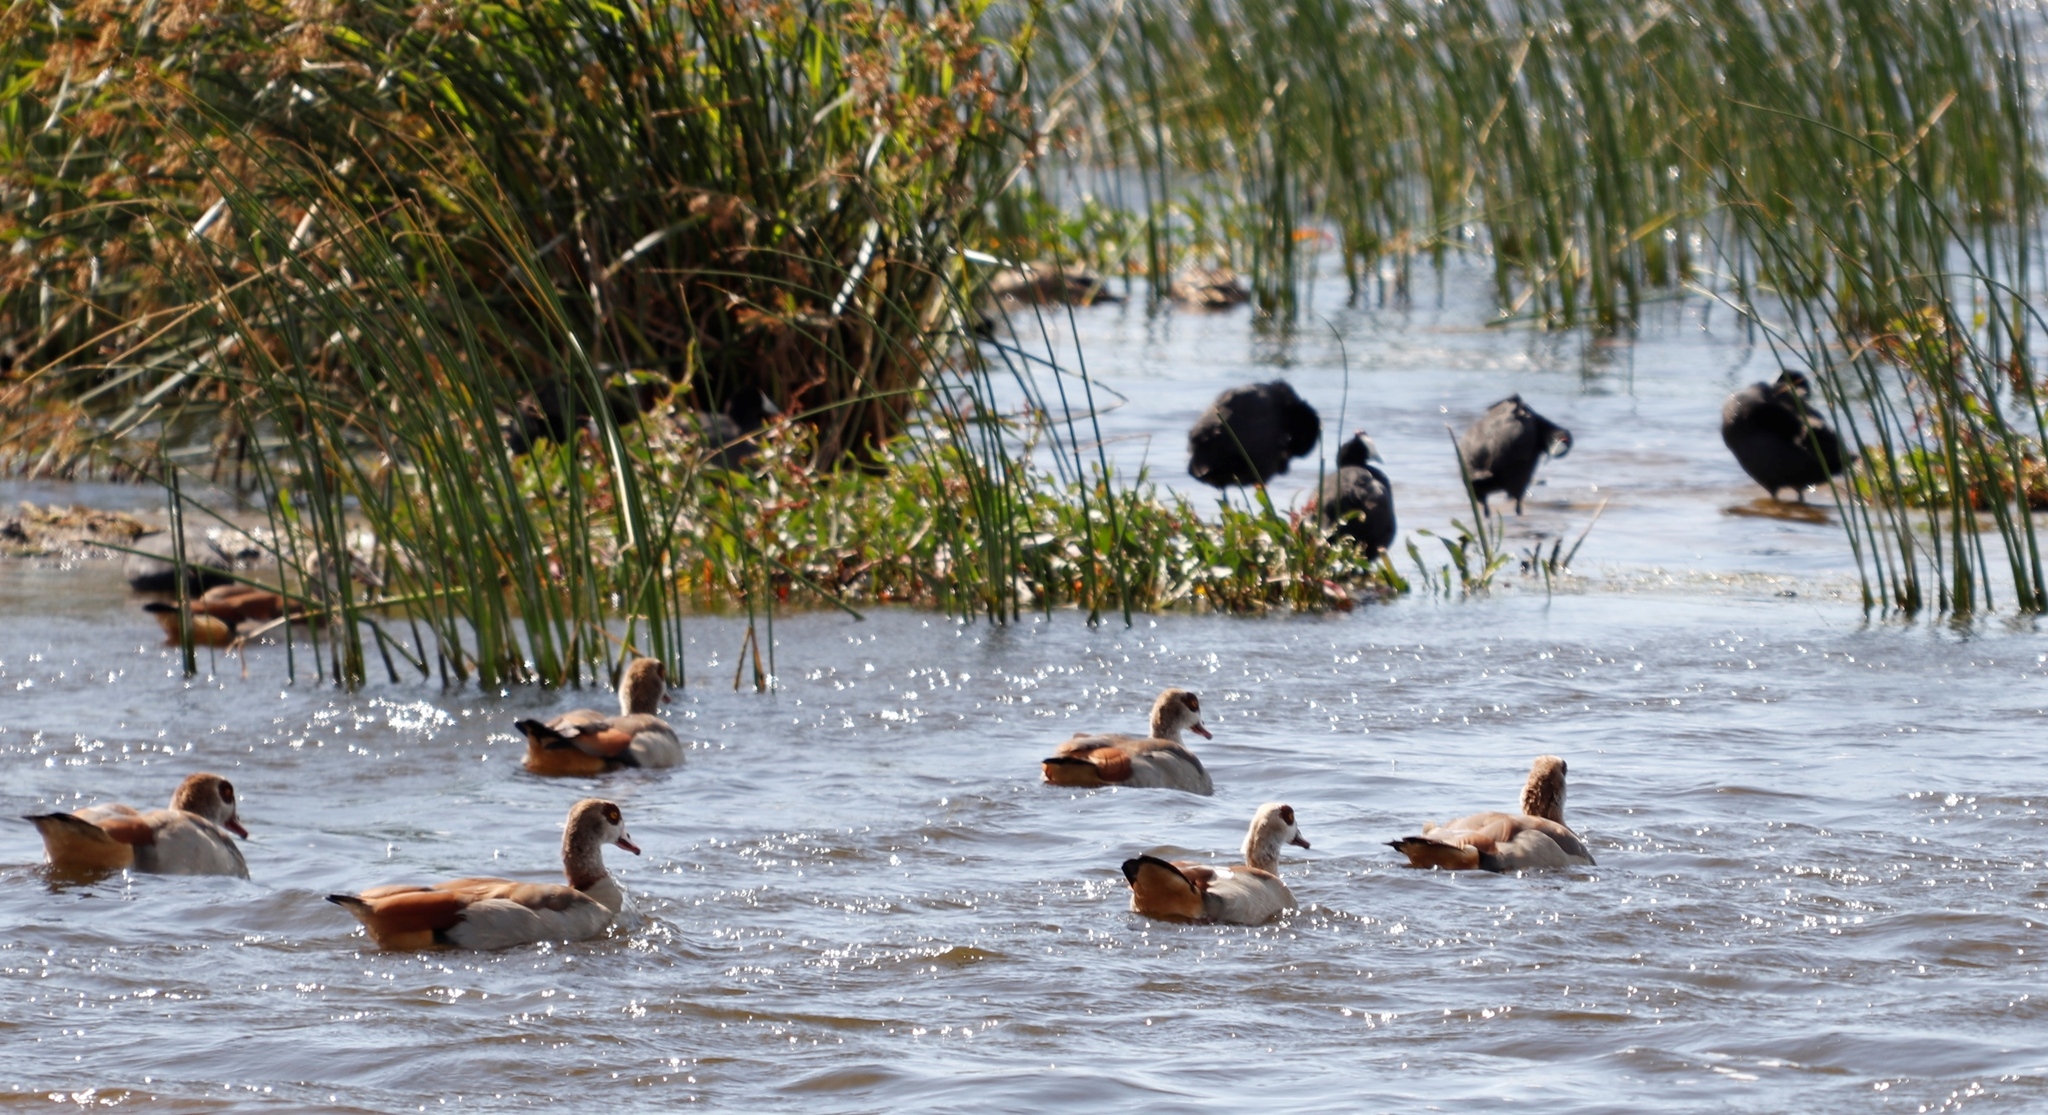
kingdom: Animalia
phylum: Chordata
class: Aves
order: Anseriformes
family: Anatidae
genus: Alopochen
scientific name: Alopochen aegyptiaca
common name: Egyptian goose
